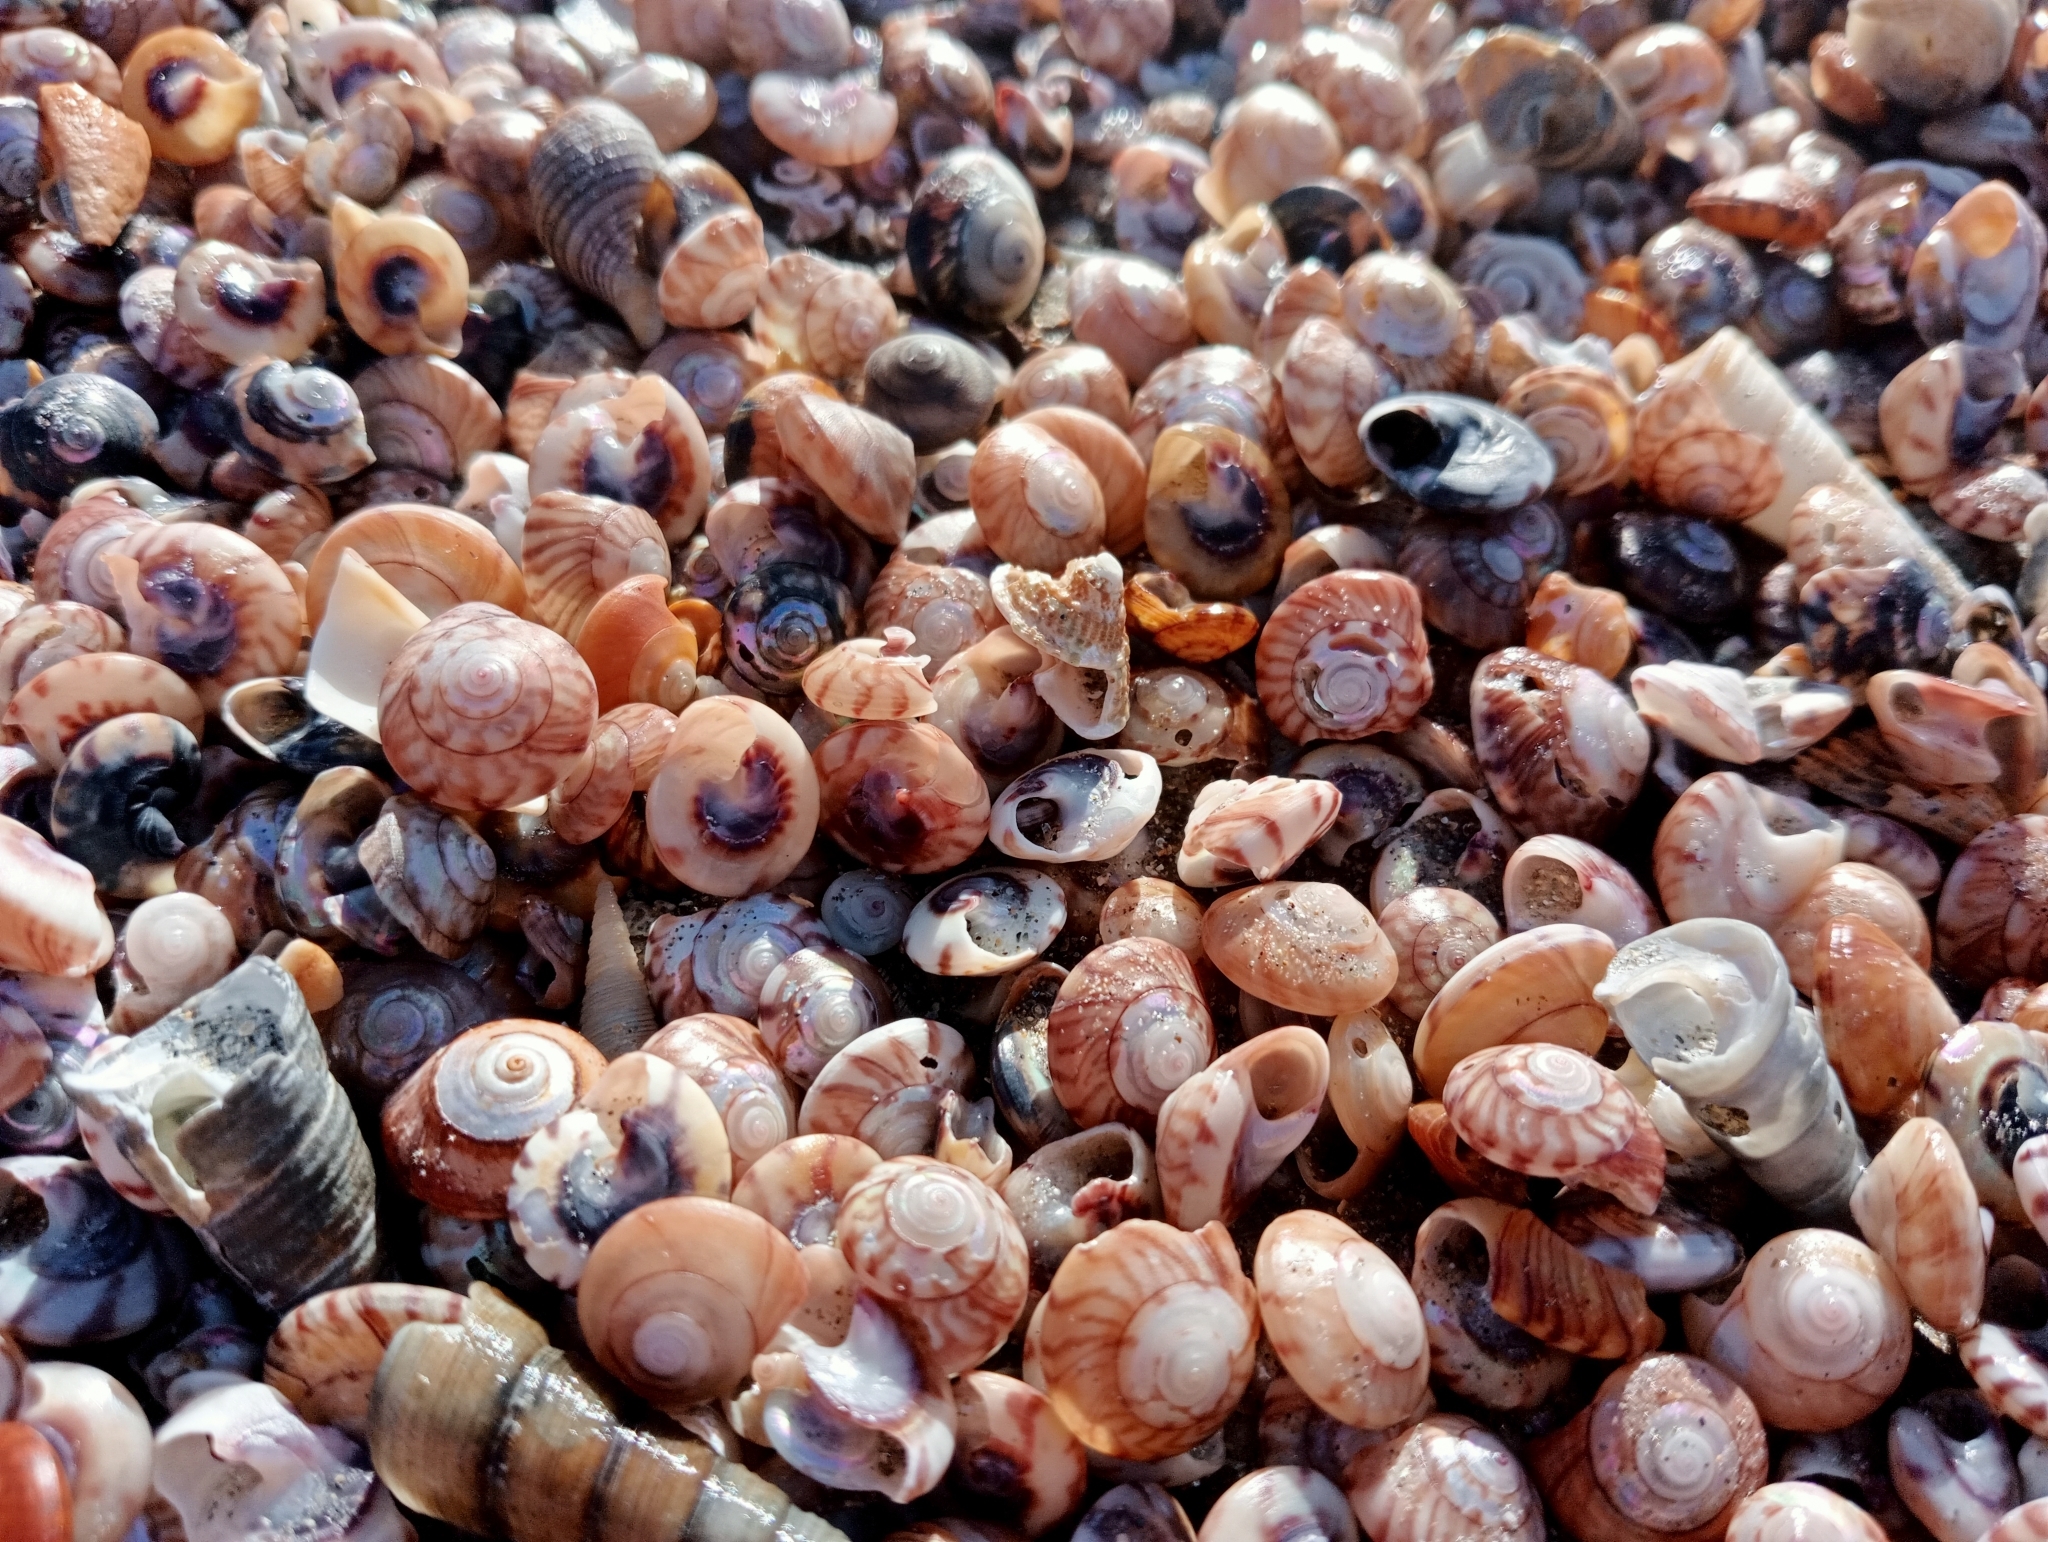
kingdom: Animalia
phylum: Mollusca
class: Gastropoda
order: Trochida
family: Trochidae
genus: Zethalia
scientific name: Zethalia zelandica
